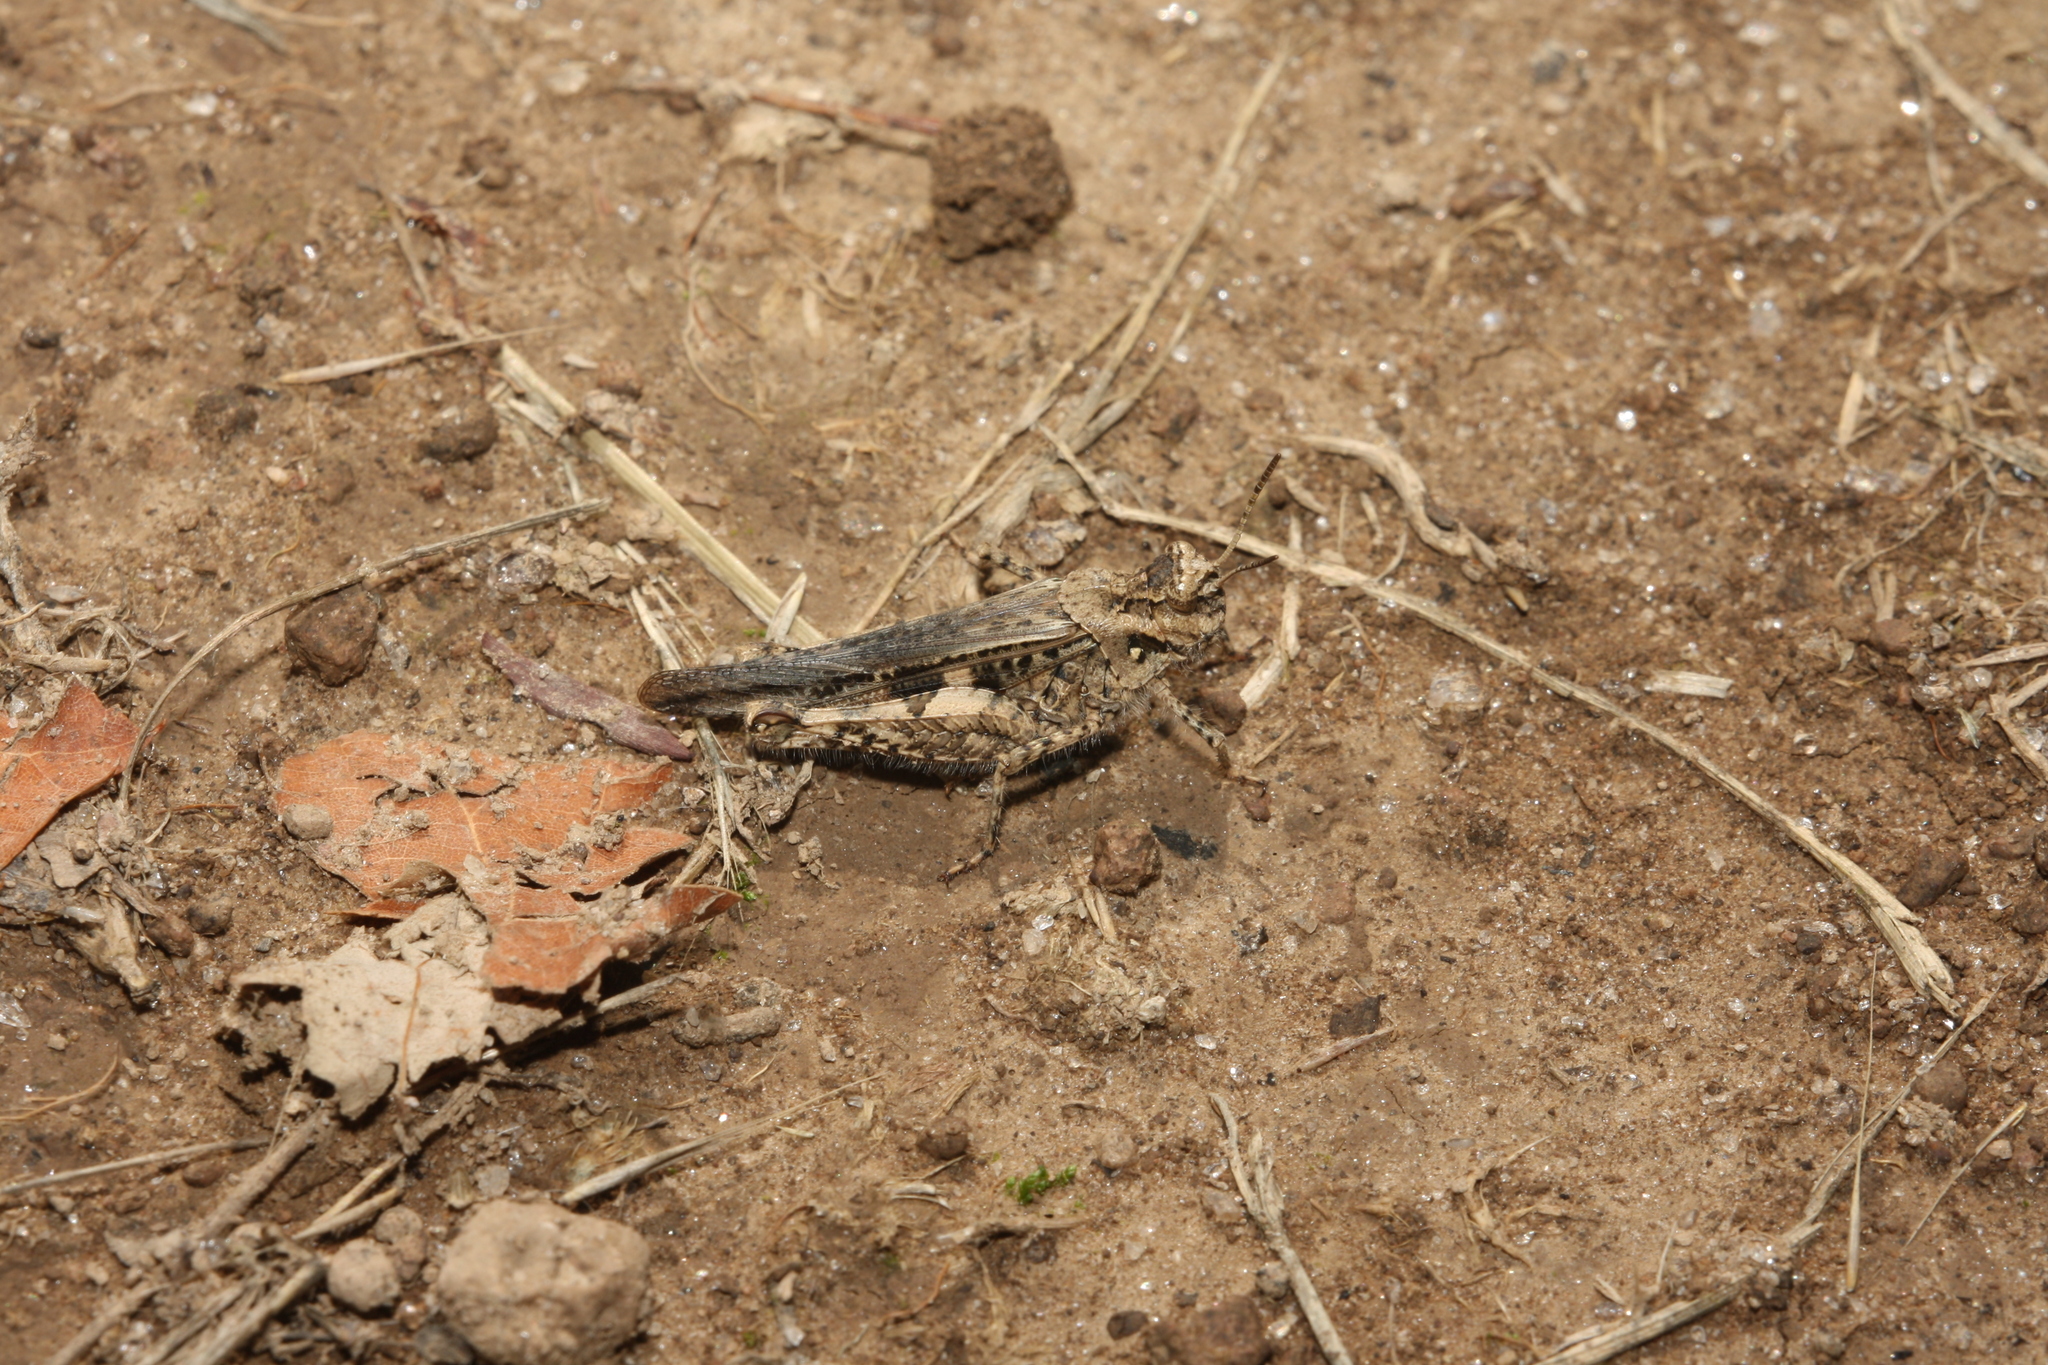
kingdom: Animalia
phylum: Arthropoda
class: Insecta
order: Orthoptera
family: Acrididae
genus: Acrotylus
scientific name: Acrotylus insubricus
